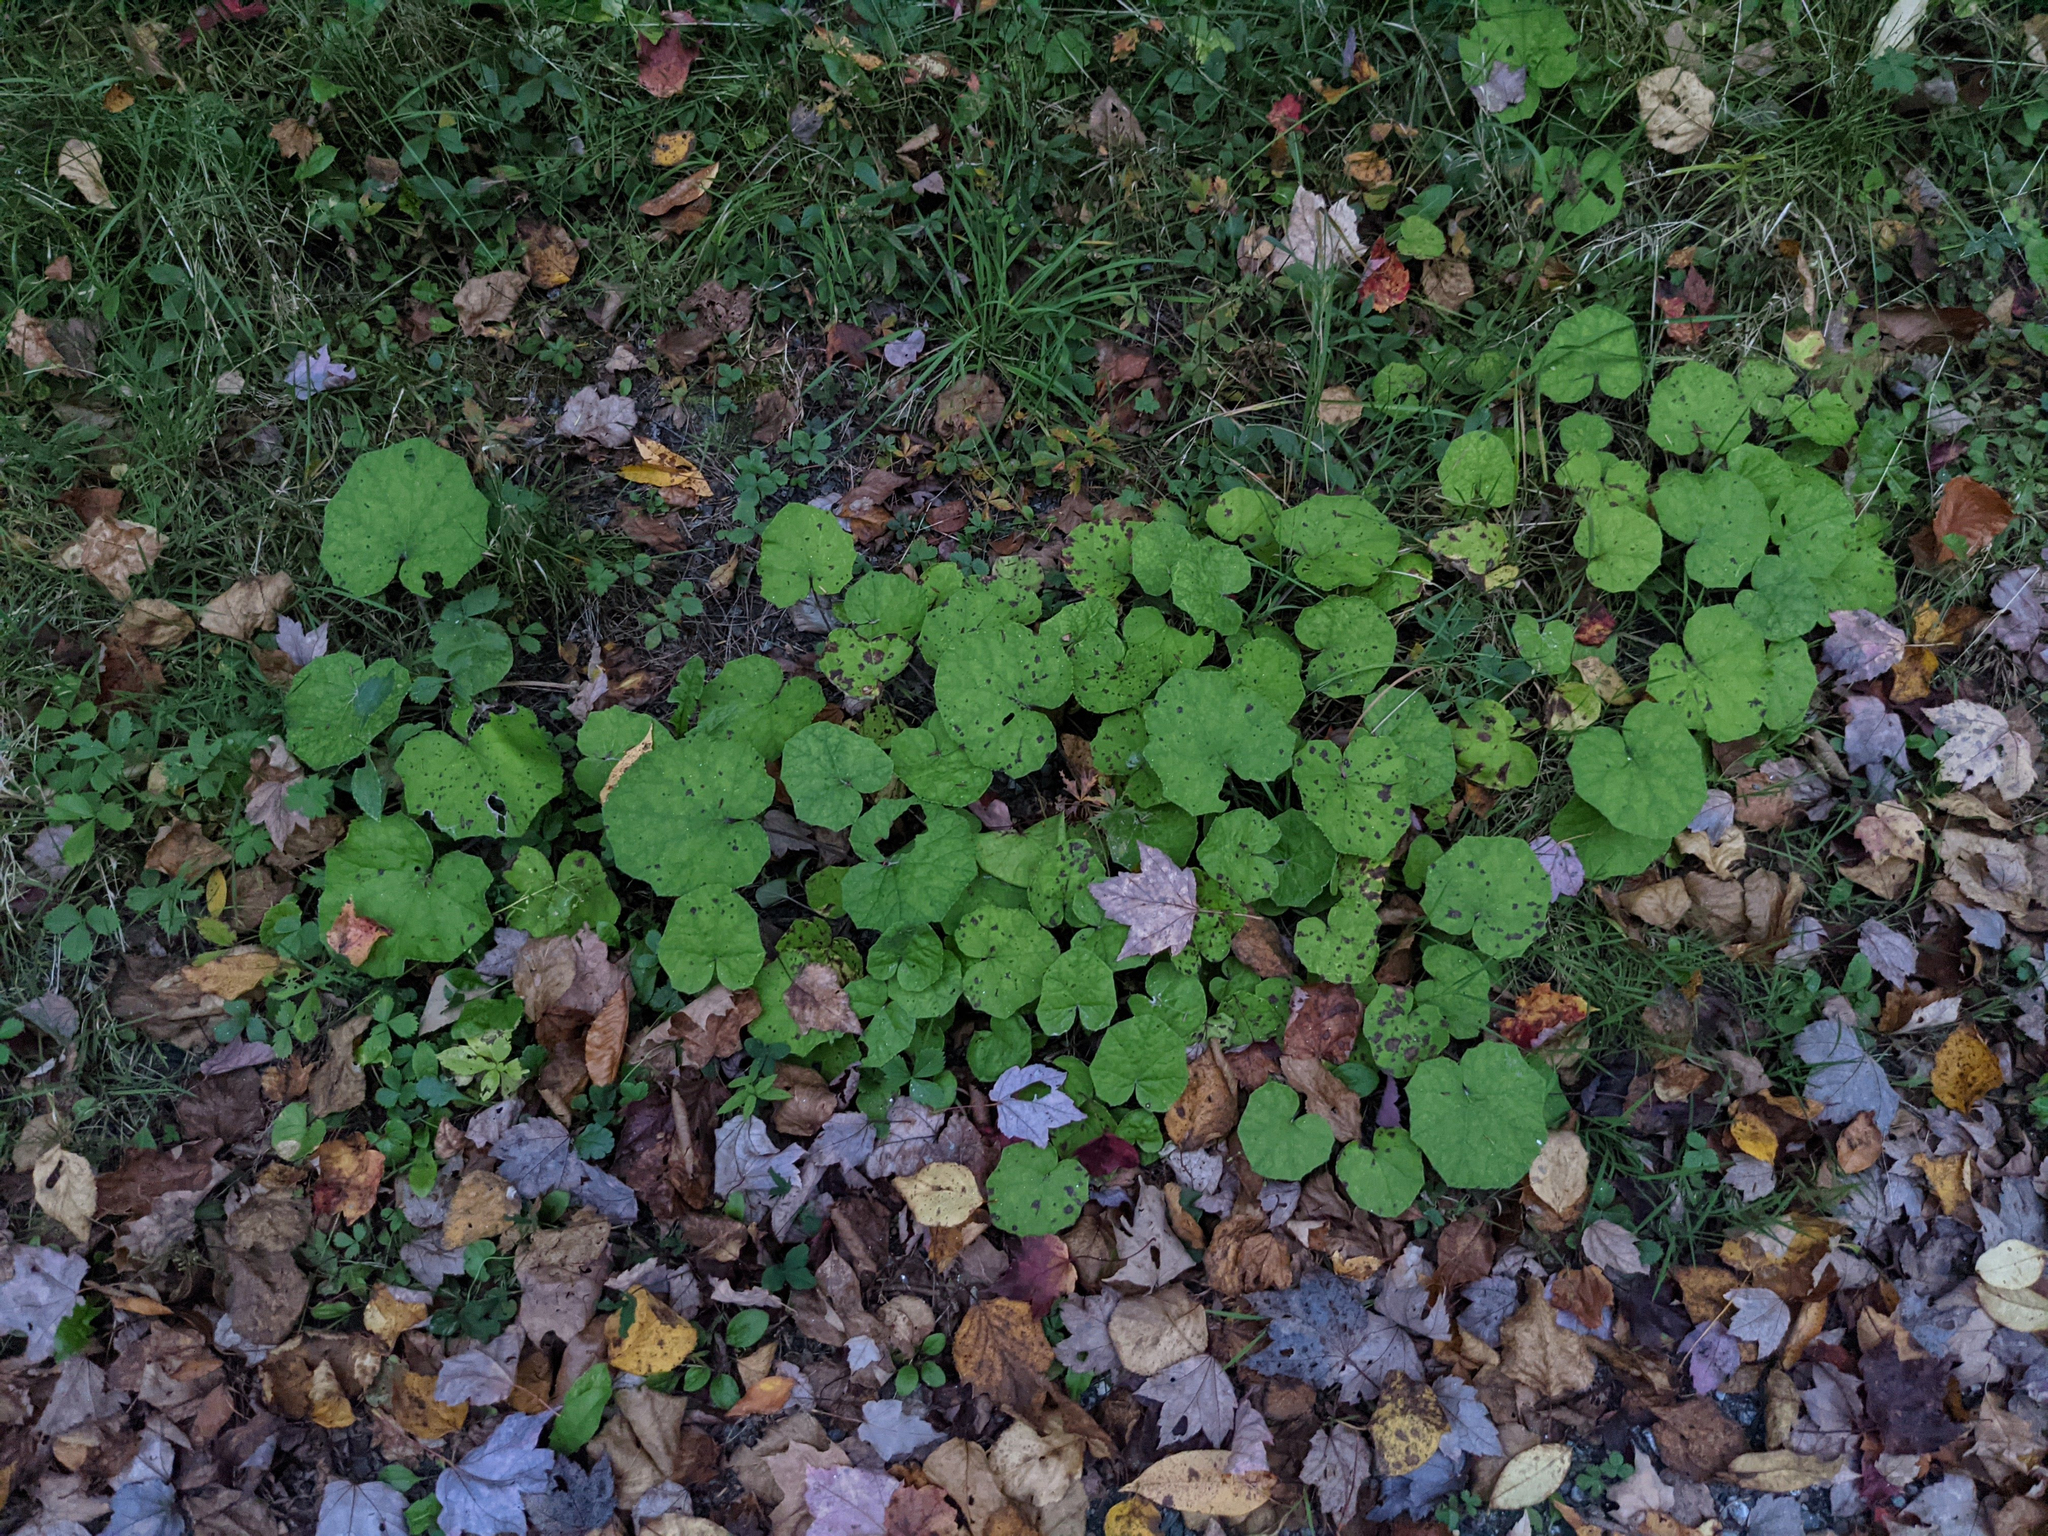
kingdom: Plantae
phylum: Tracheophyta
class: Magnoliopsida
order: Asterales
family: Asteraceae
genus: Tussilago
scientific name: Tussilago farfara
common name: Coltsfoot
